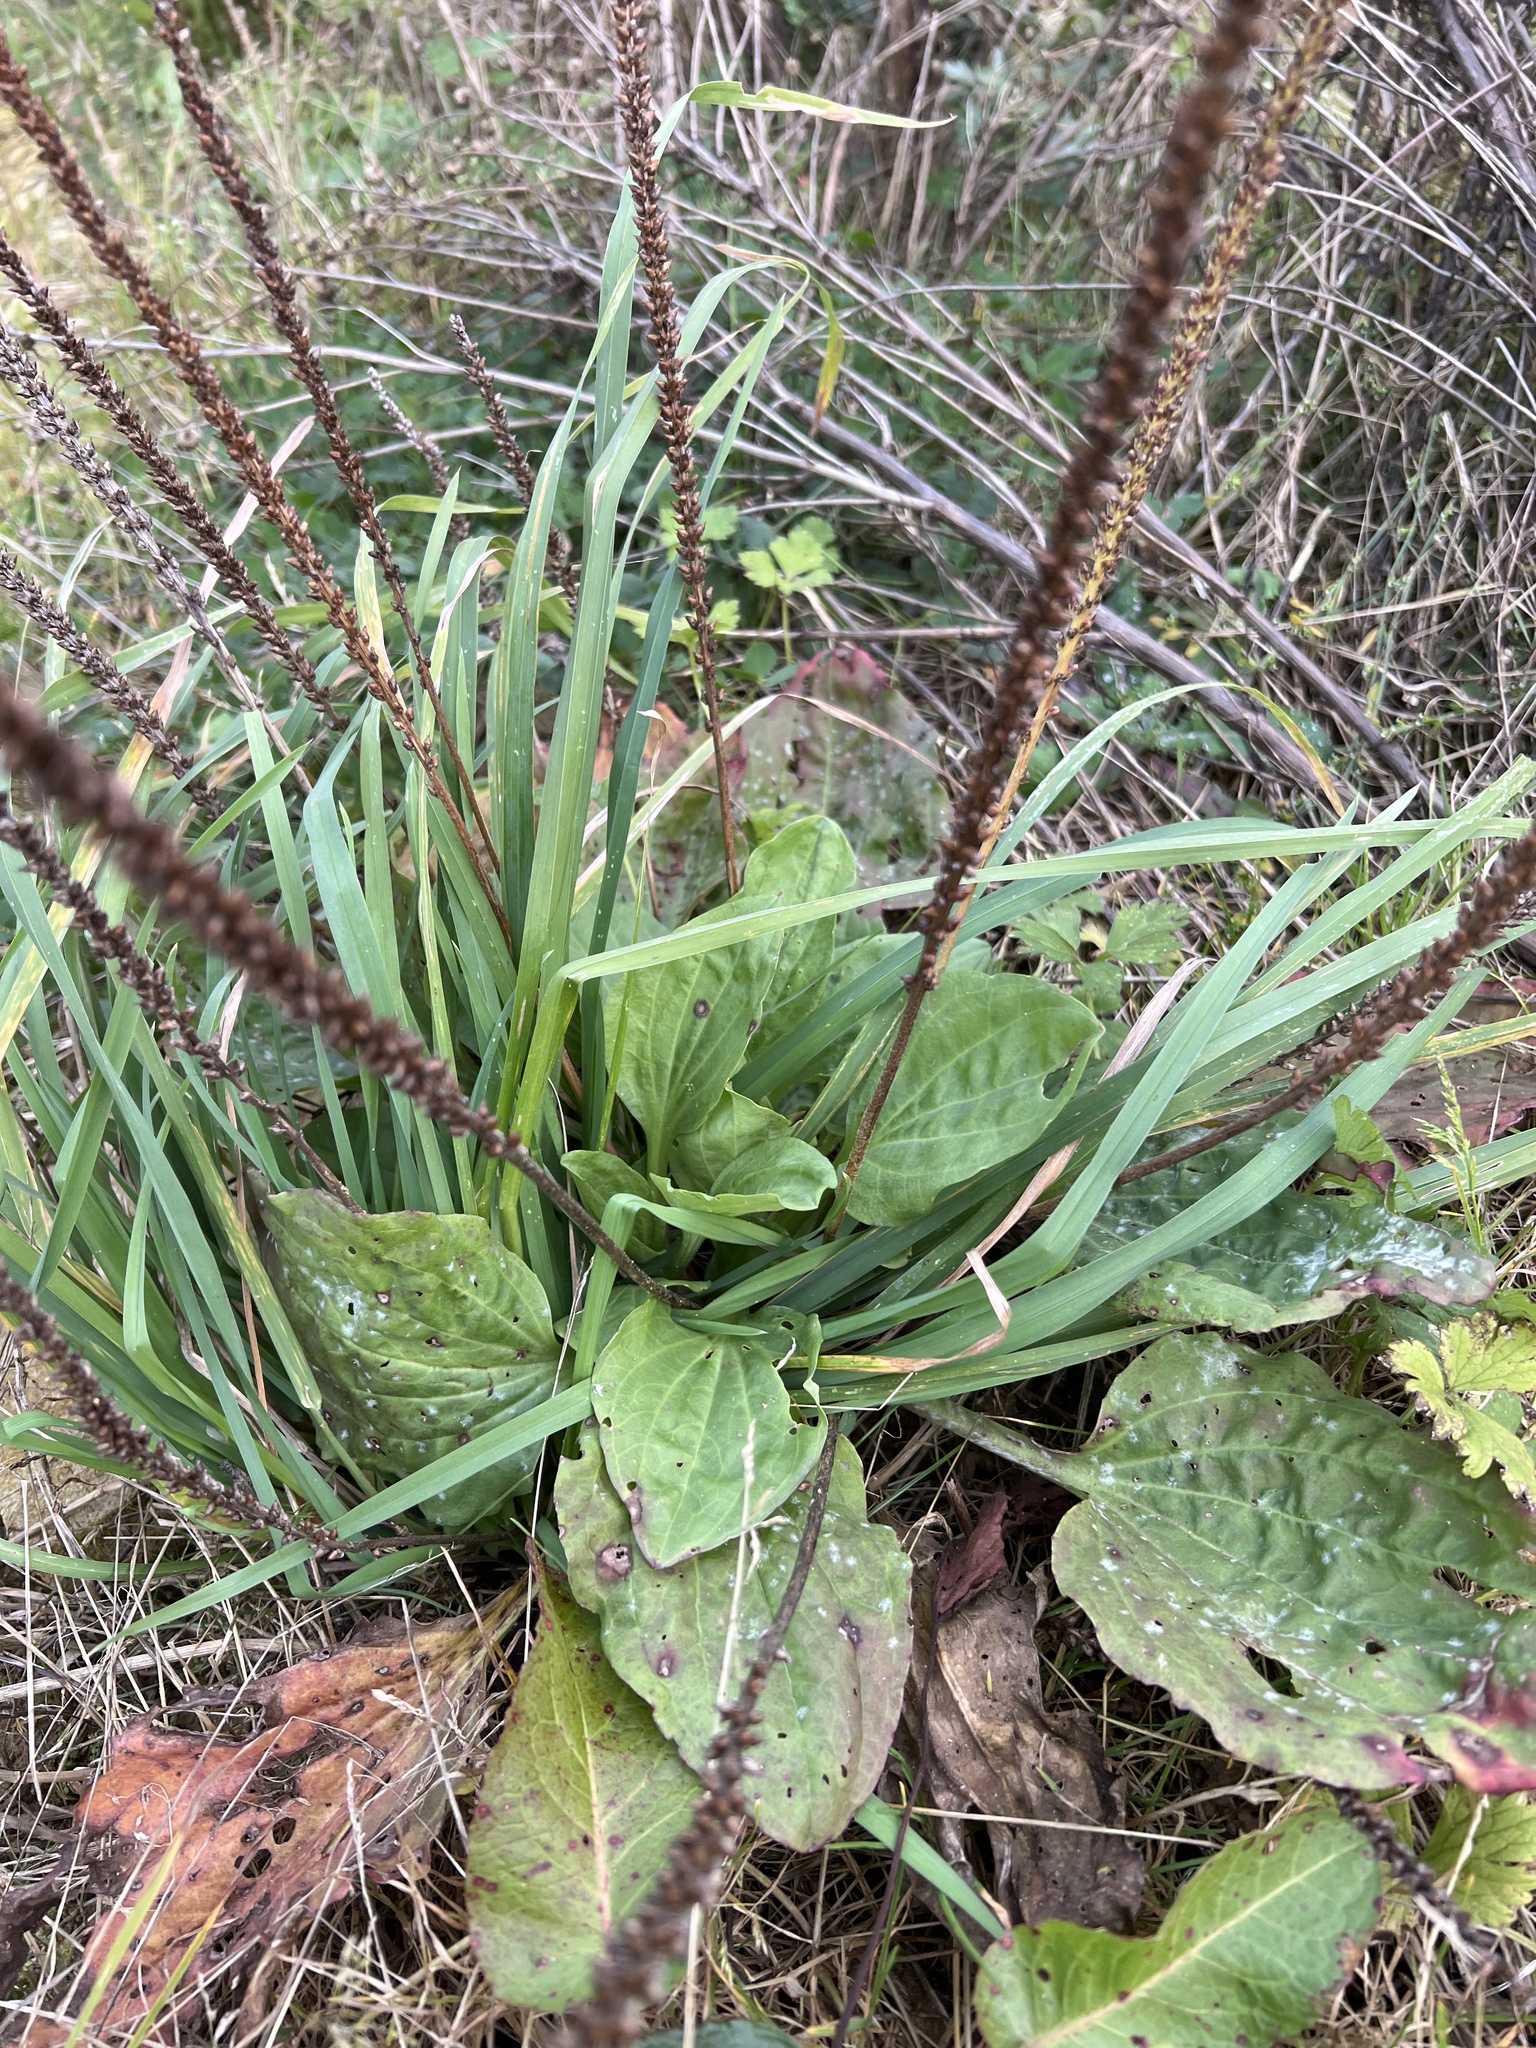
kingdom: Plantae
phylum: Tracheophyta
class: Magnoliopsida
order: Lamiales
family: Plantaginaceae
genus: Plantago
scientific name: Plantago major
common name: Common plantain
